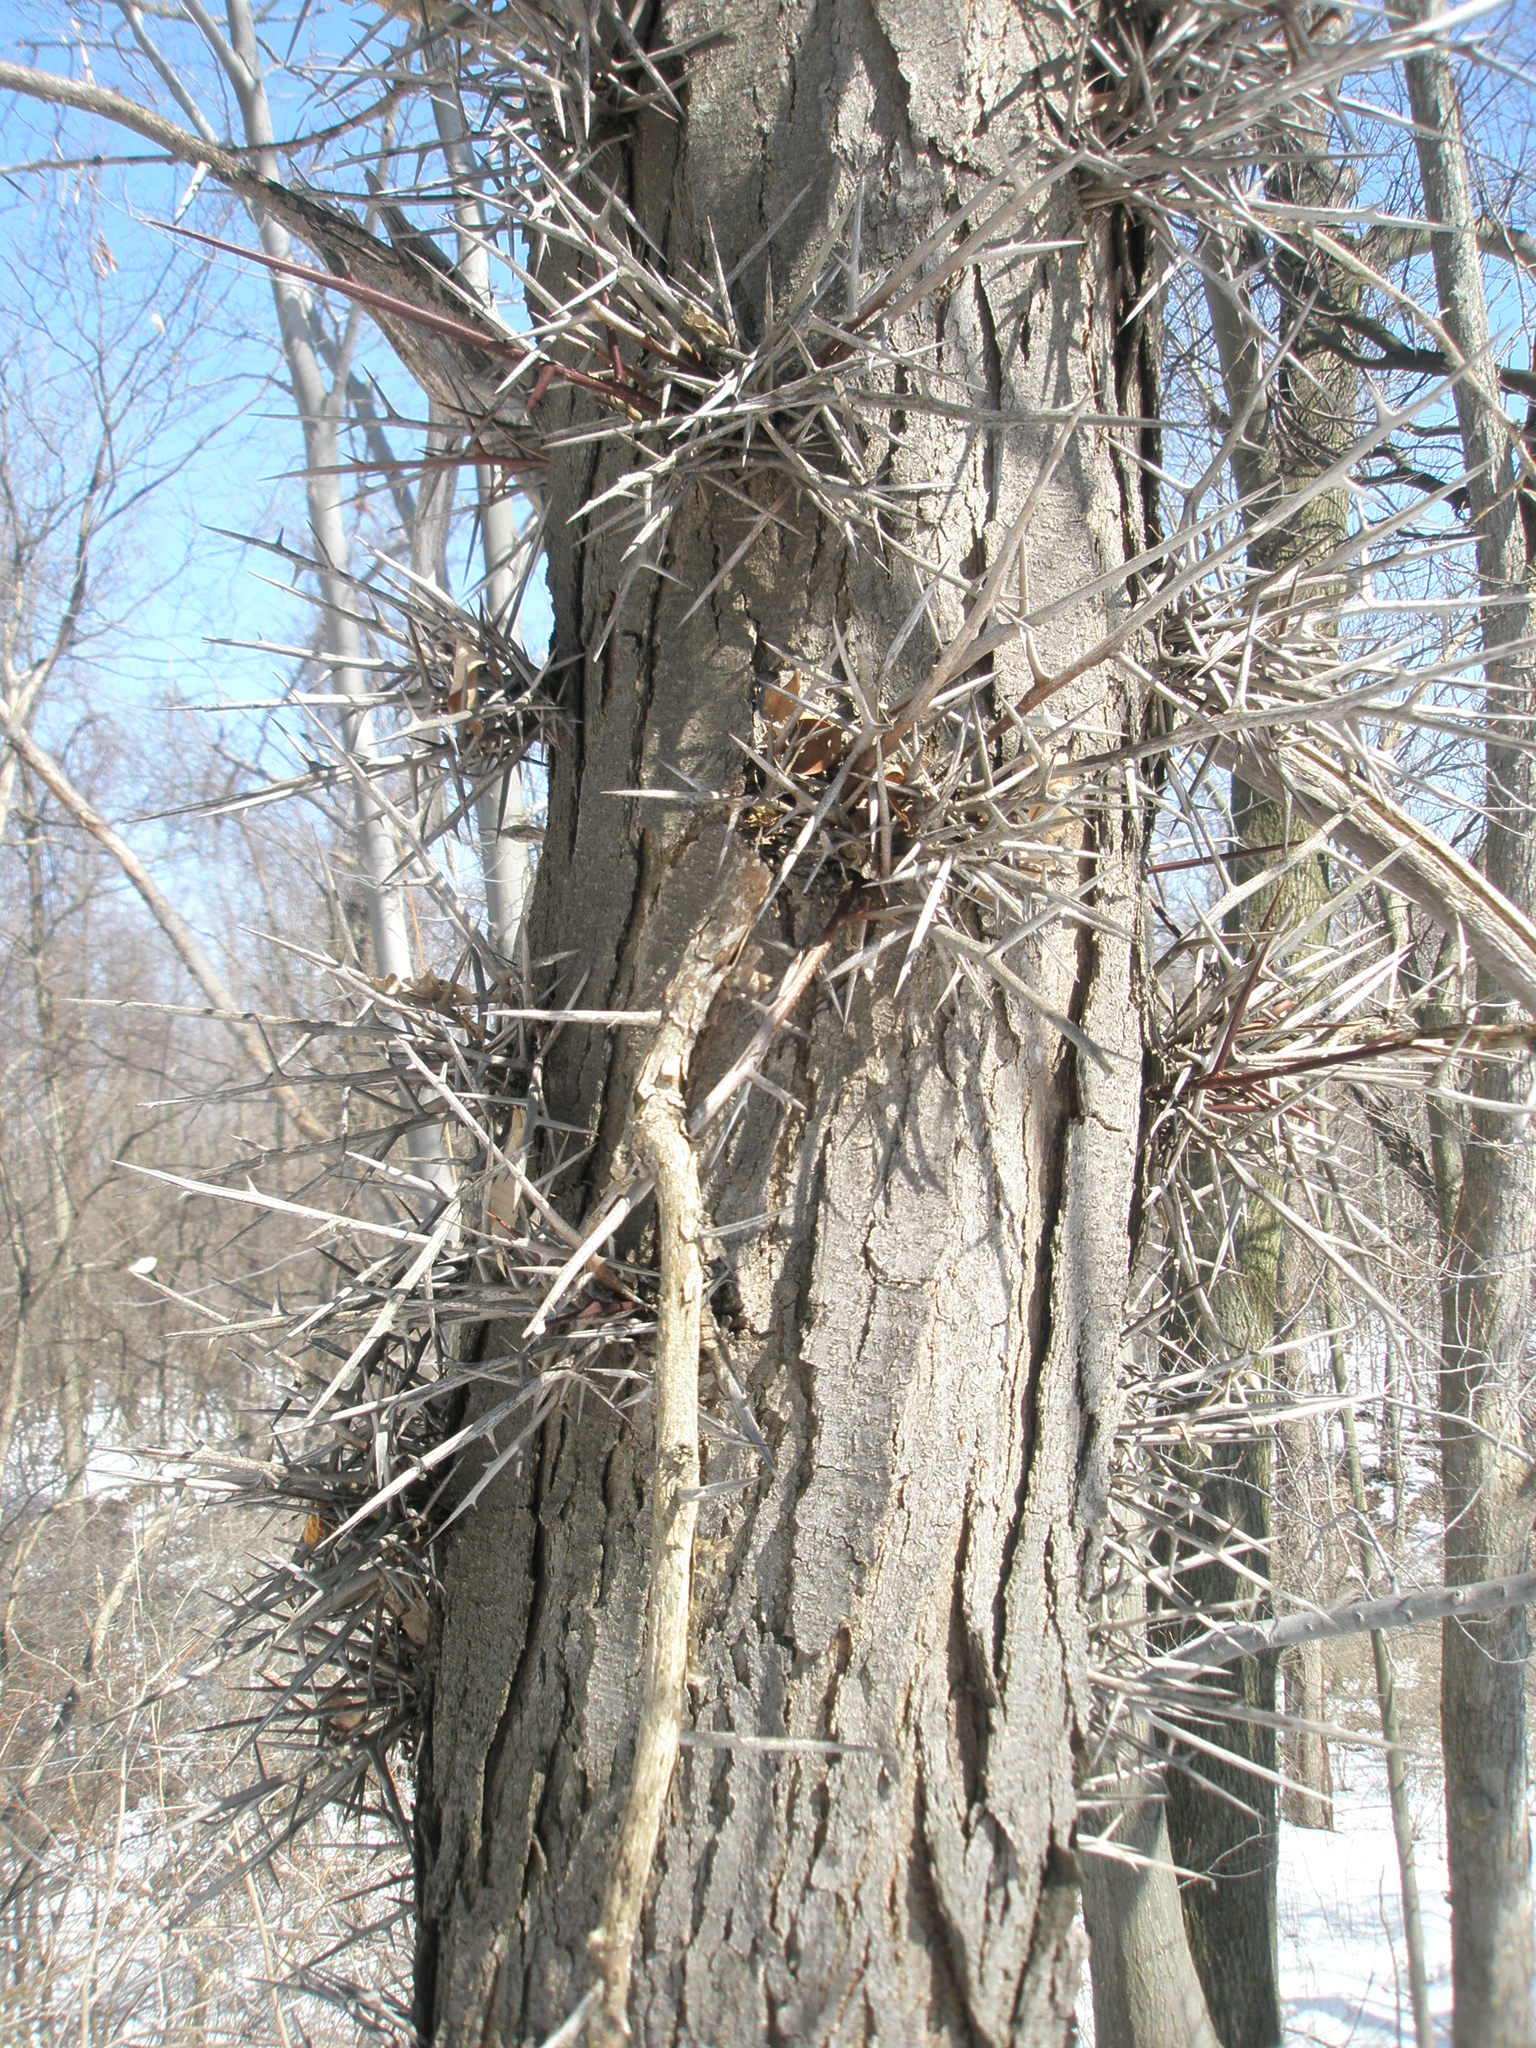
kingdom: Plantae
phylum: Tracheophyta
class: Magnoliopsida
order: Fabales
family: Fabaceae
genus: Gleditsia
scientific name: Gleditsia triacanthos
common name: Common honeylocust
